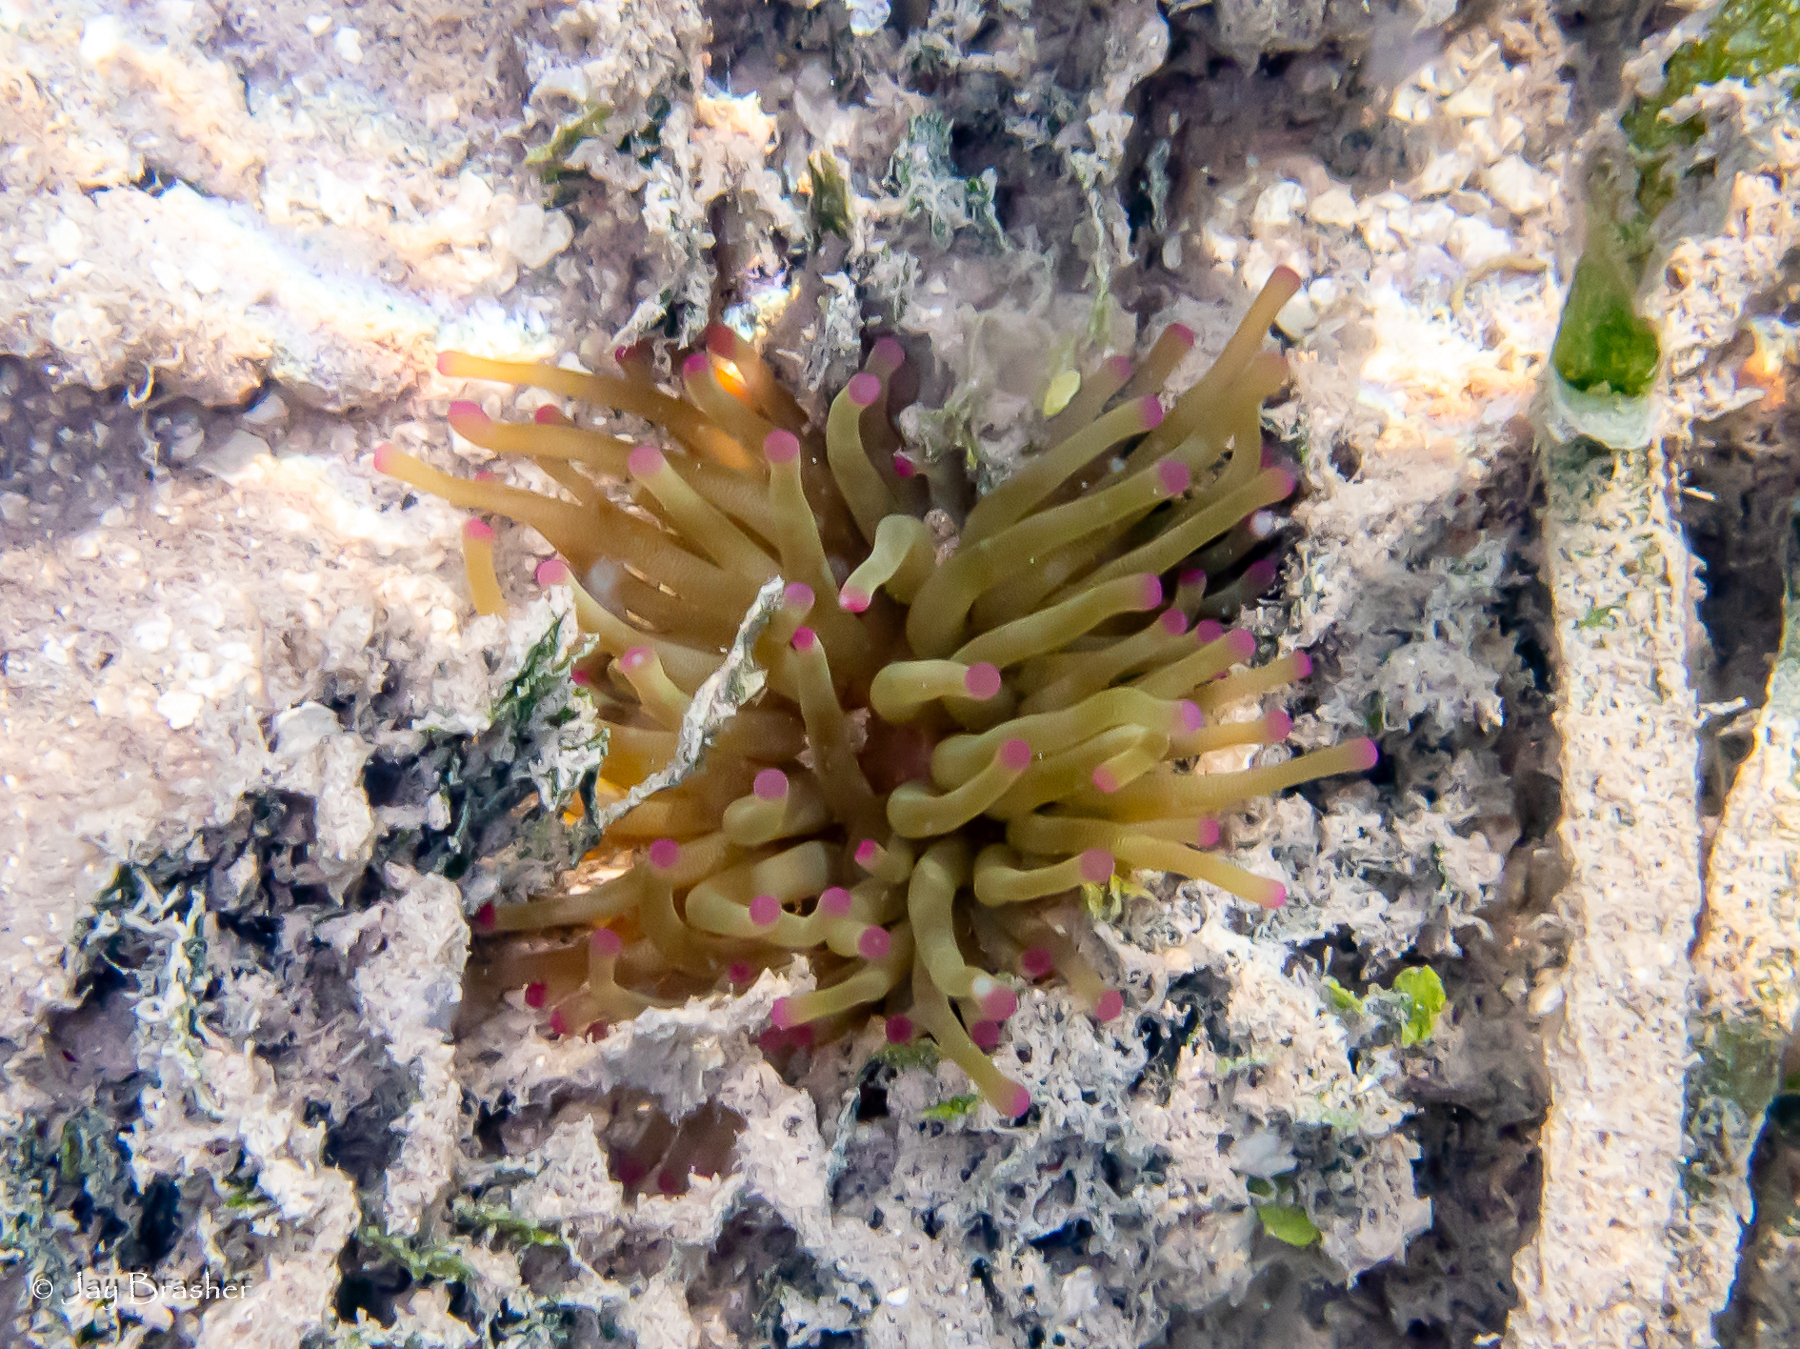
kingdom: Animalia
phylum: Cnidaria
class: Anthozoa
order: Actiniaria
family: Actiniidae
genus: Condylactis
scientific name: Condylactis gigantea
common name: Giant caribbean anemone
